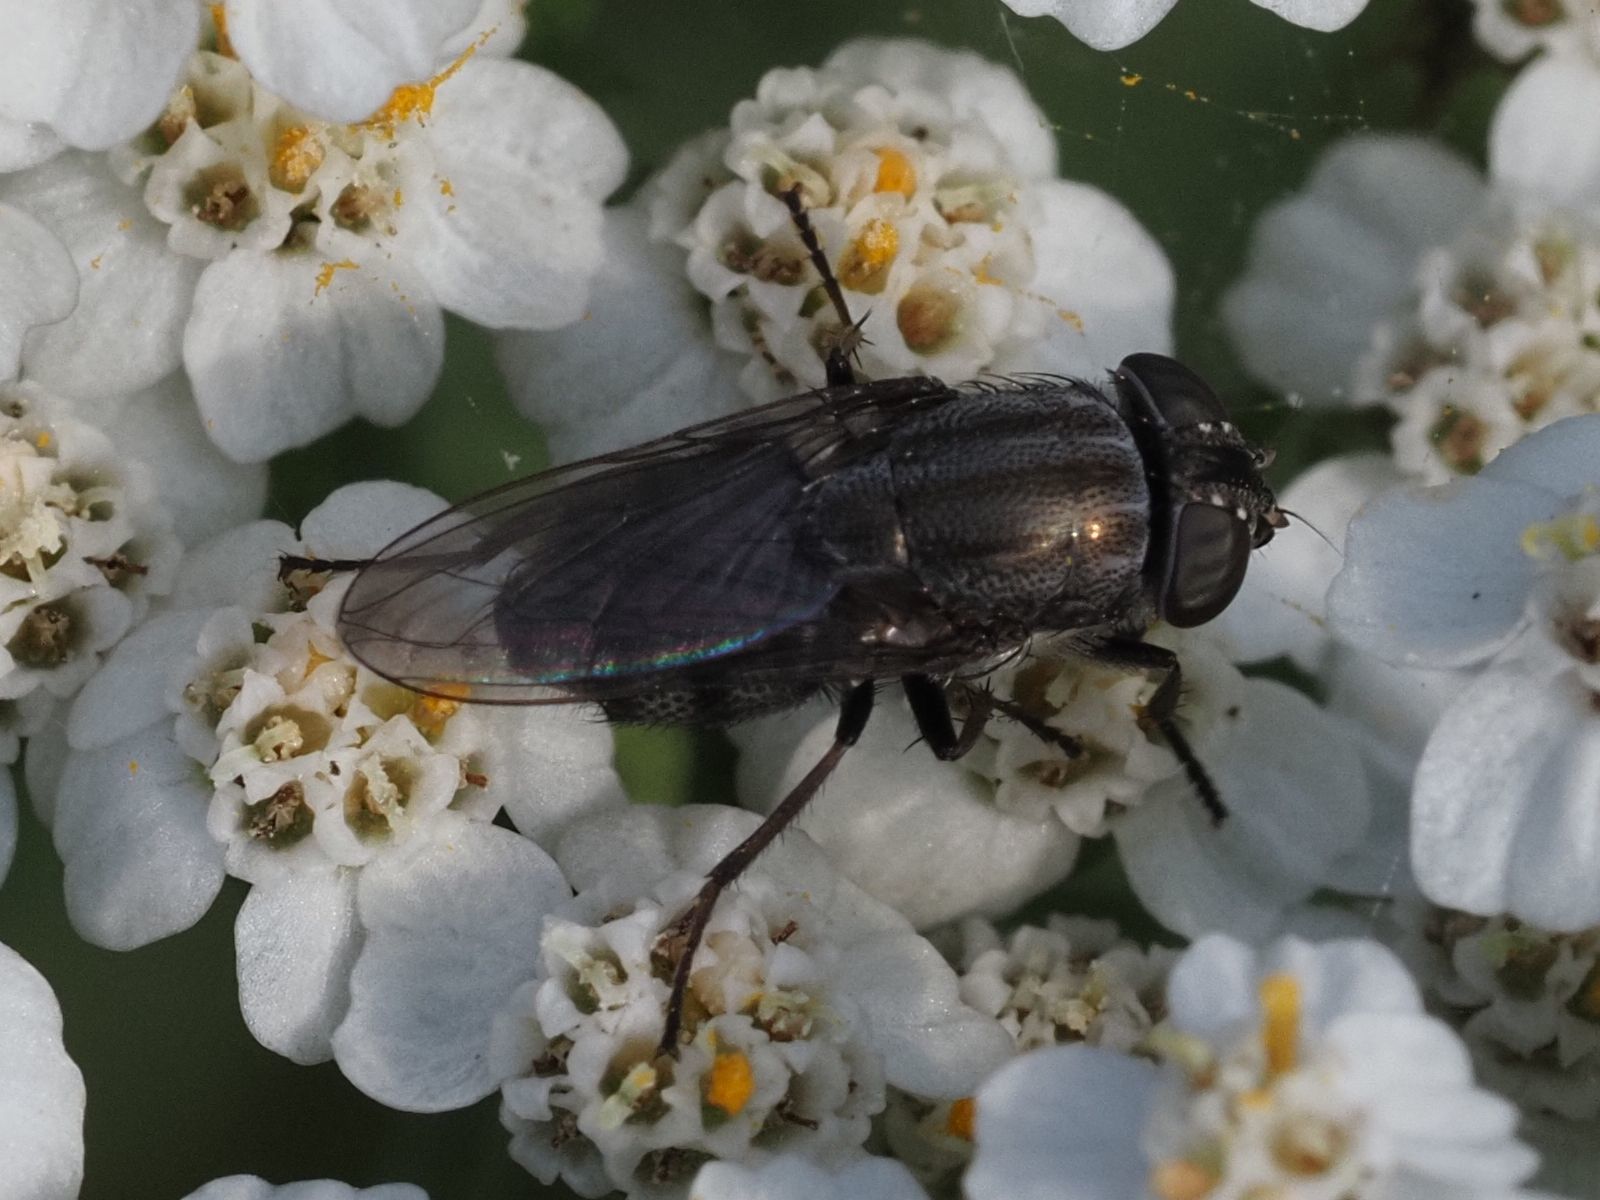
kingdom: Animalia
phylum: Arthropoda
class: Insecta
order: Diptera
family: Calliphoridae
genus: Stomorhina
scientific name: Stomorhina lunata
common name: Locust blowfly
